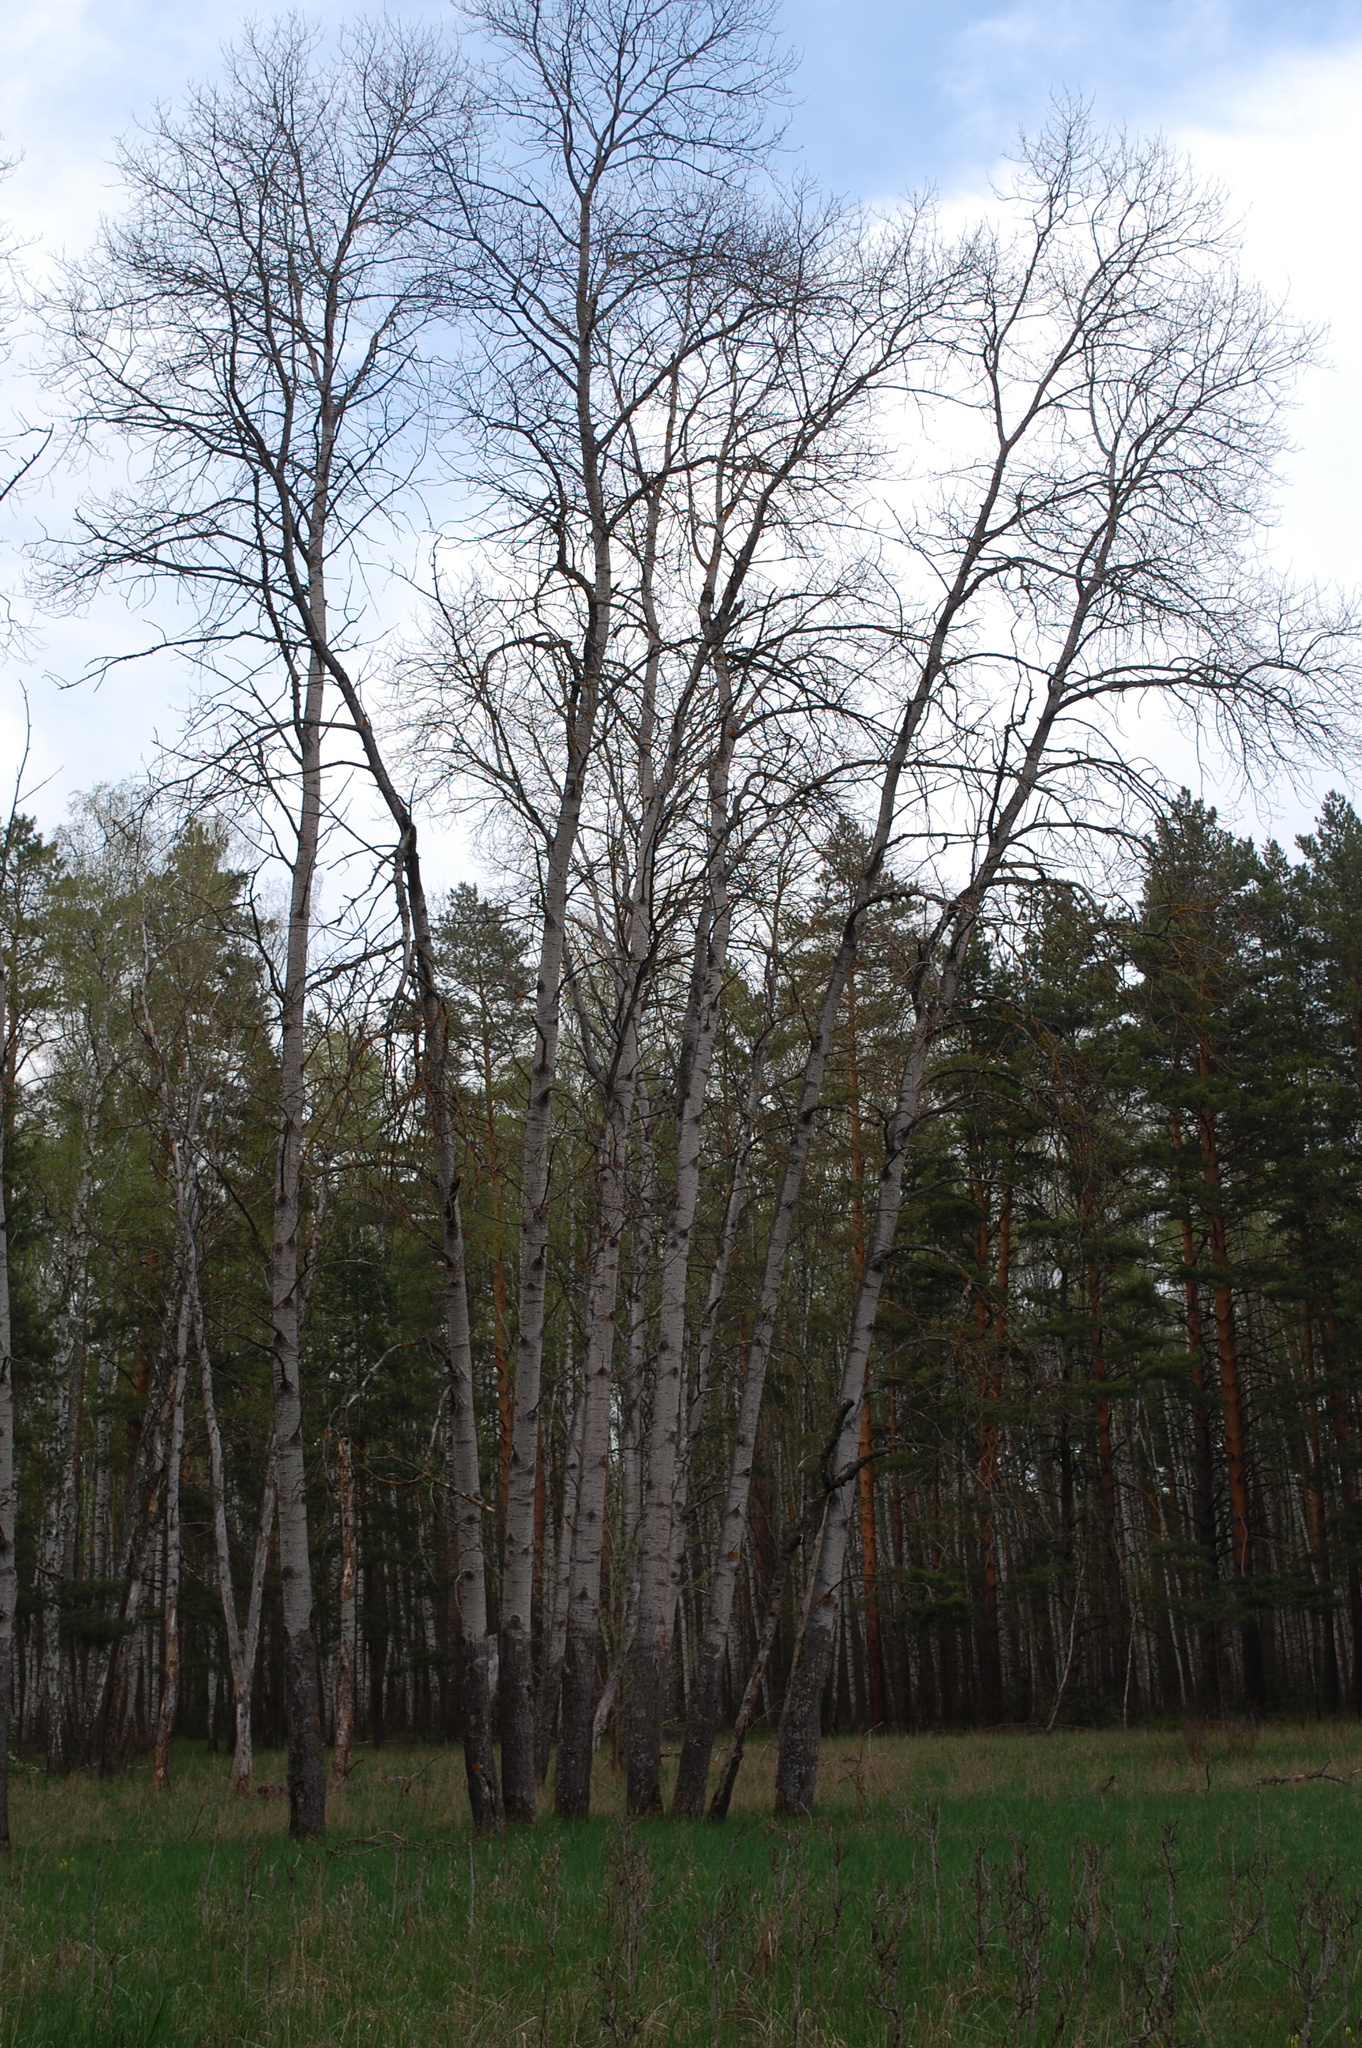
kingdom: Plantae
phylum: Tracheophyta
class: Magnoliopsida
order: Malpighiales
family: Salicaceae
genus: Populus
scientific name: Populus tremula
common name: European aspen
